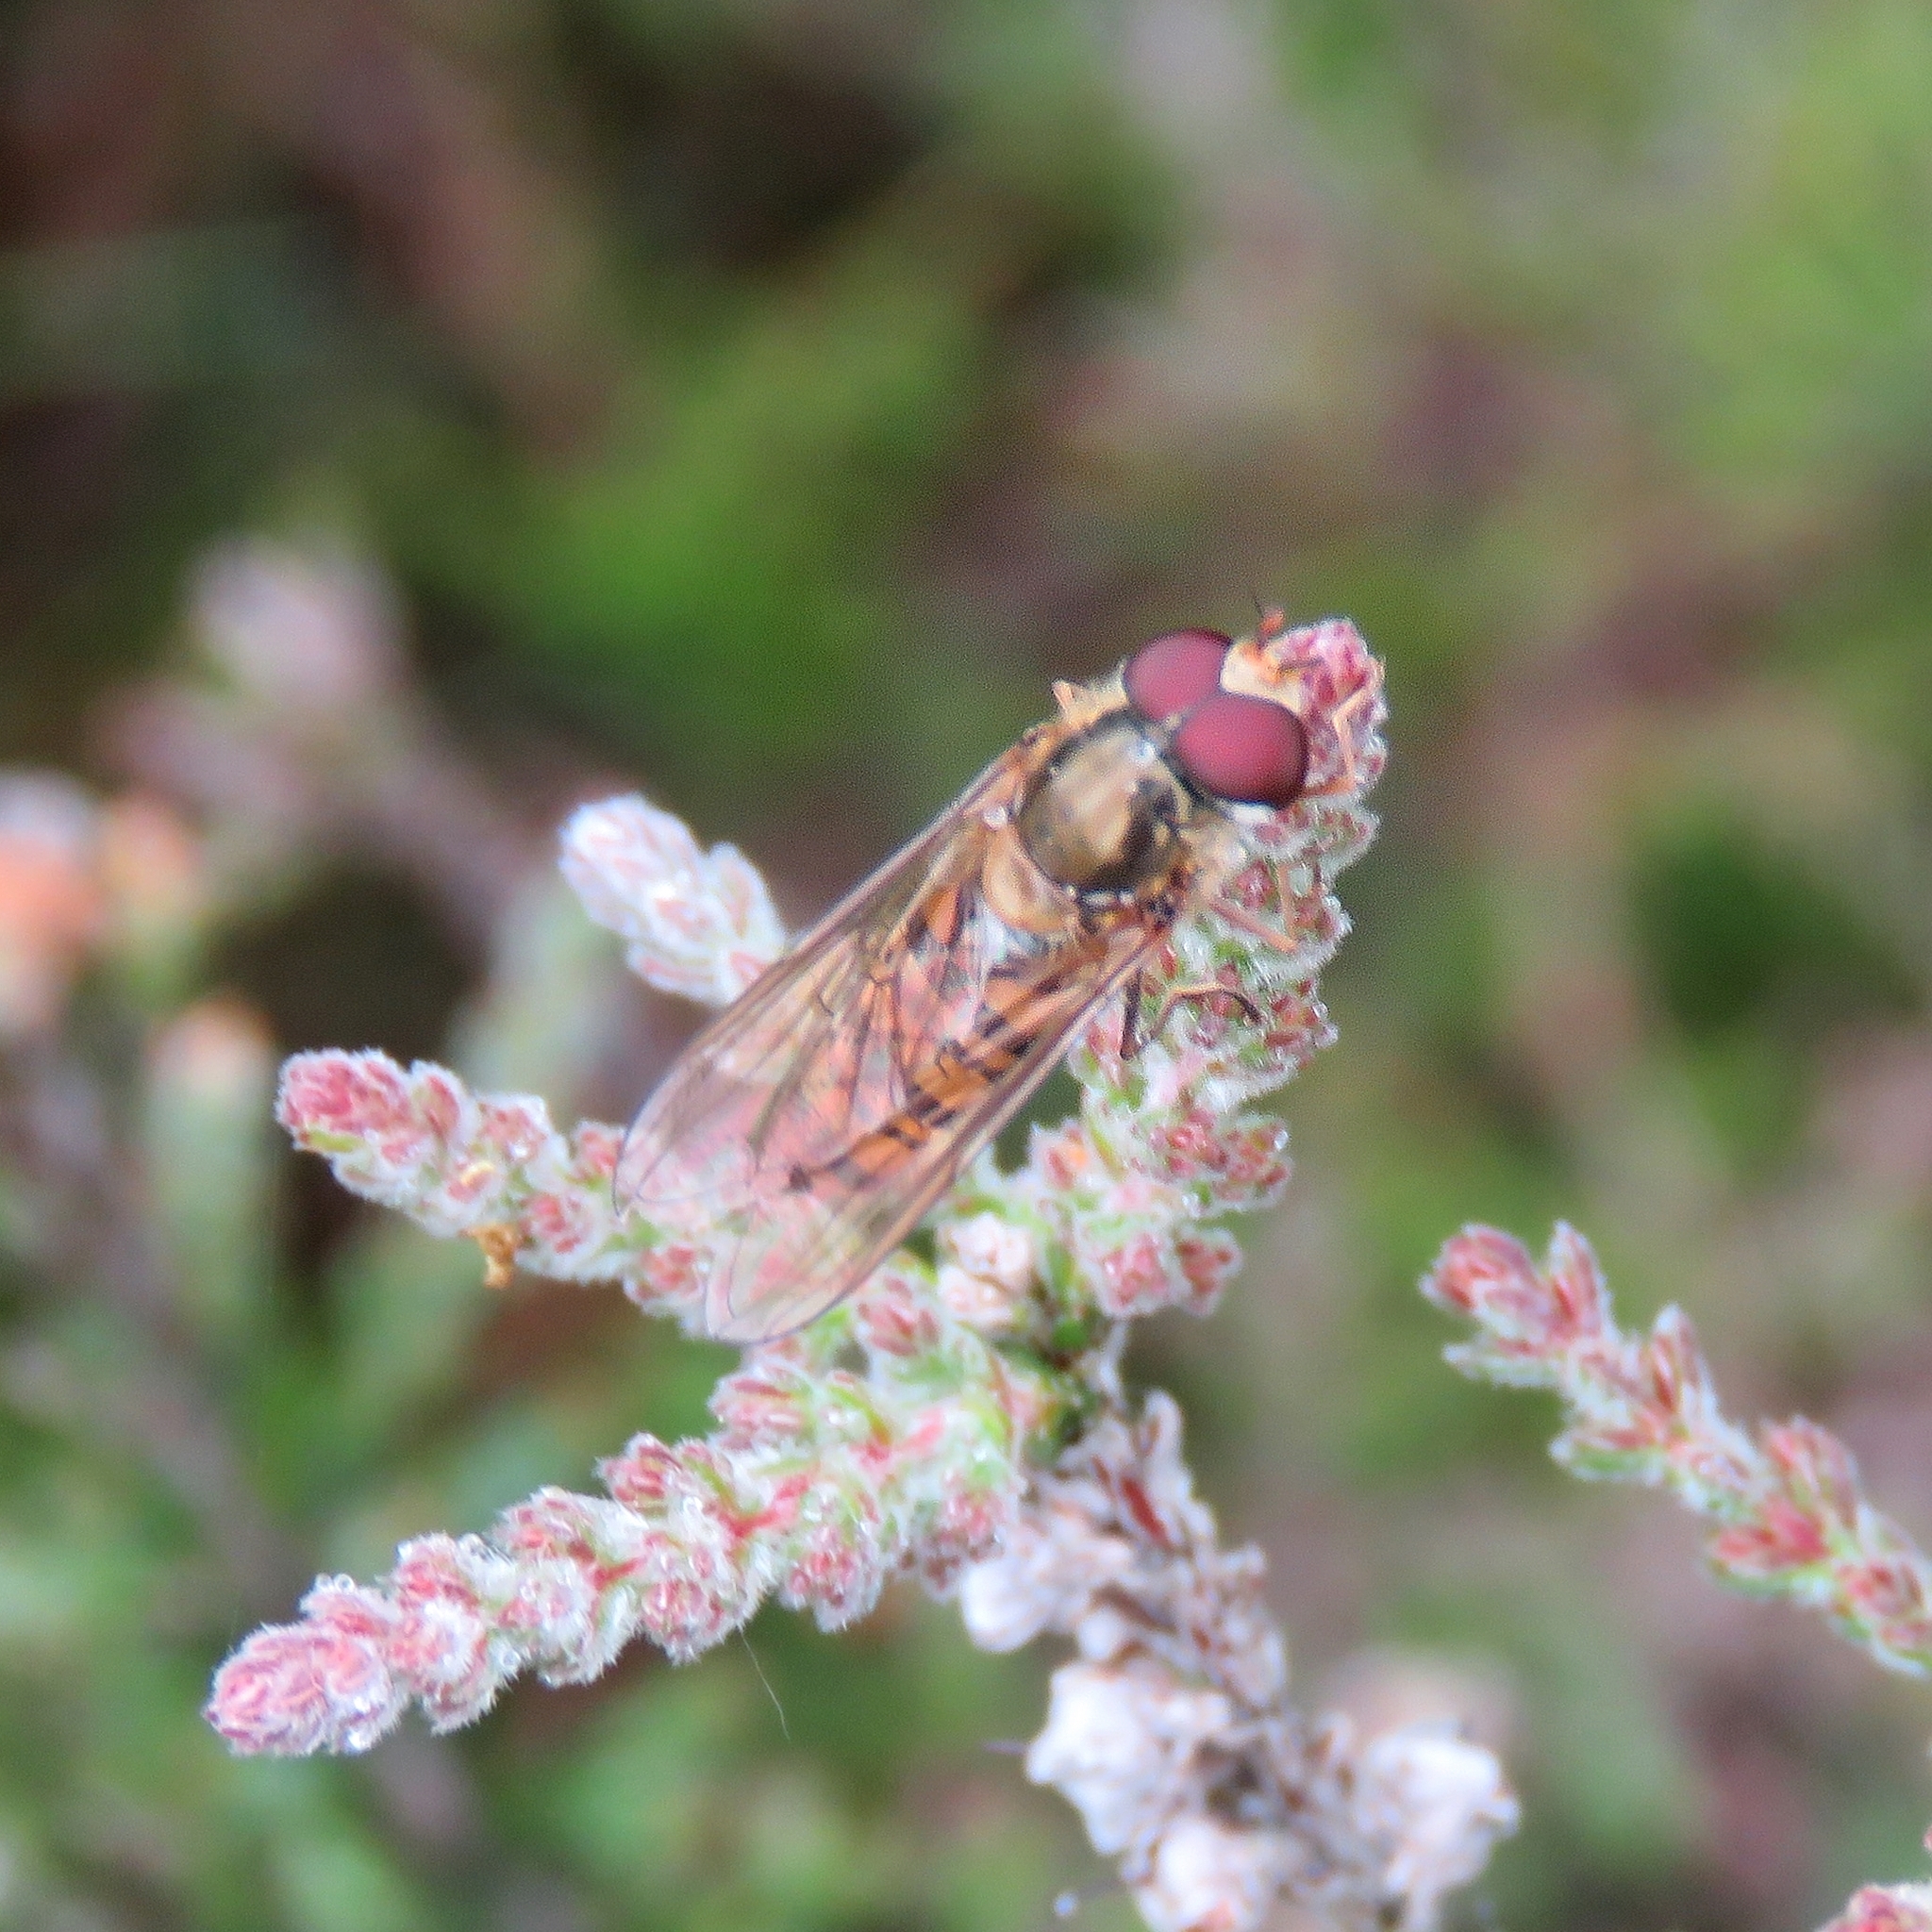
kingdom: Animalia
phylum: Arthropoda
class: Insecta
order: Diptera
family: Syrphidae
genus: Episyrphus
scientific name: Episyrphus balteatus
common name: Marmalade hoverfly
